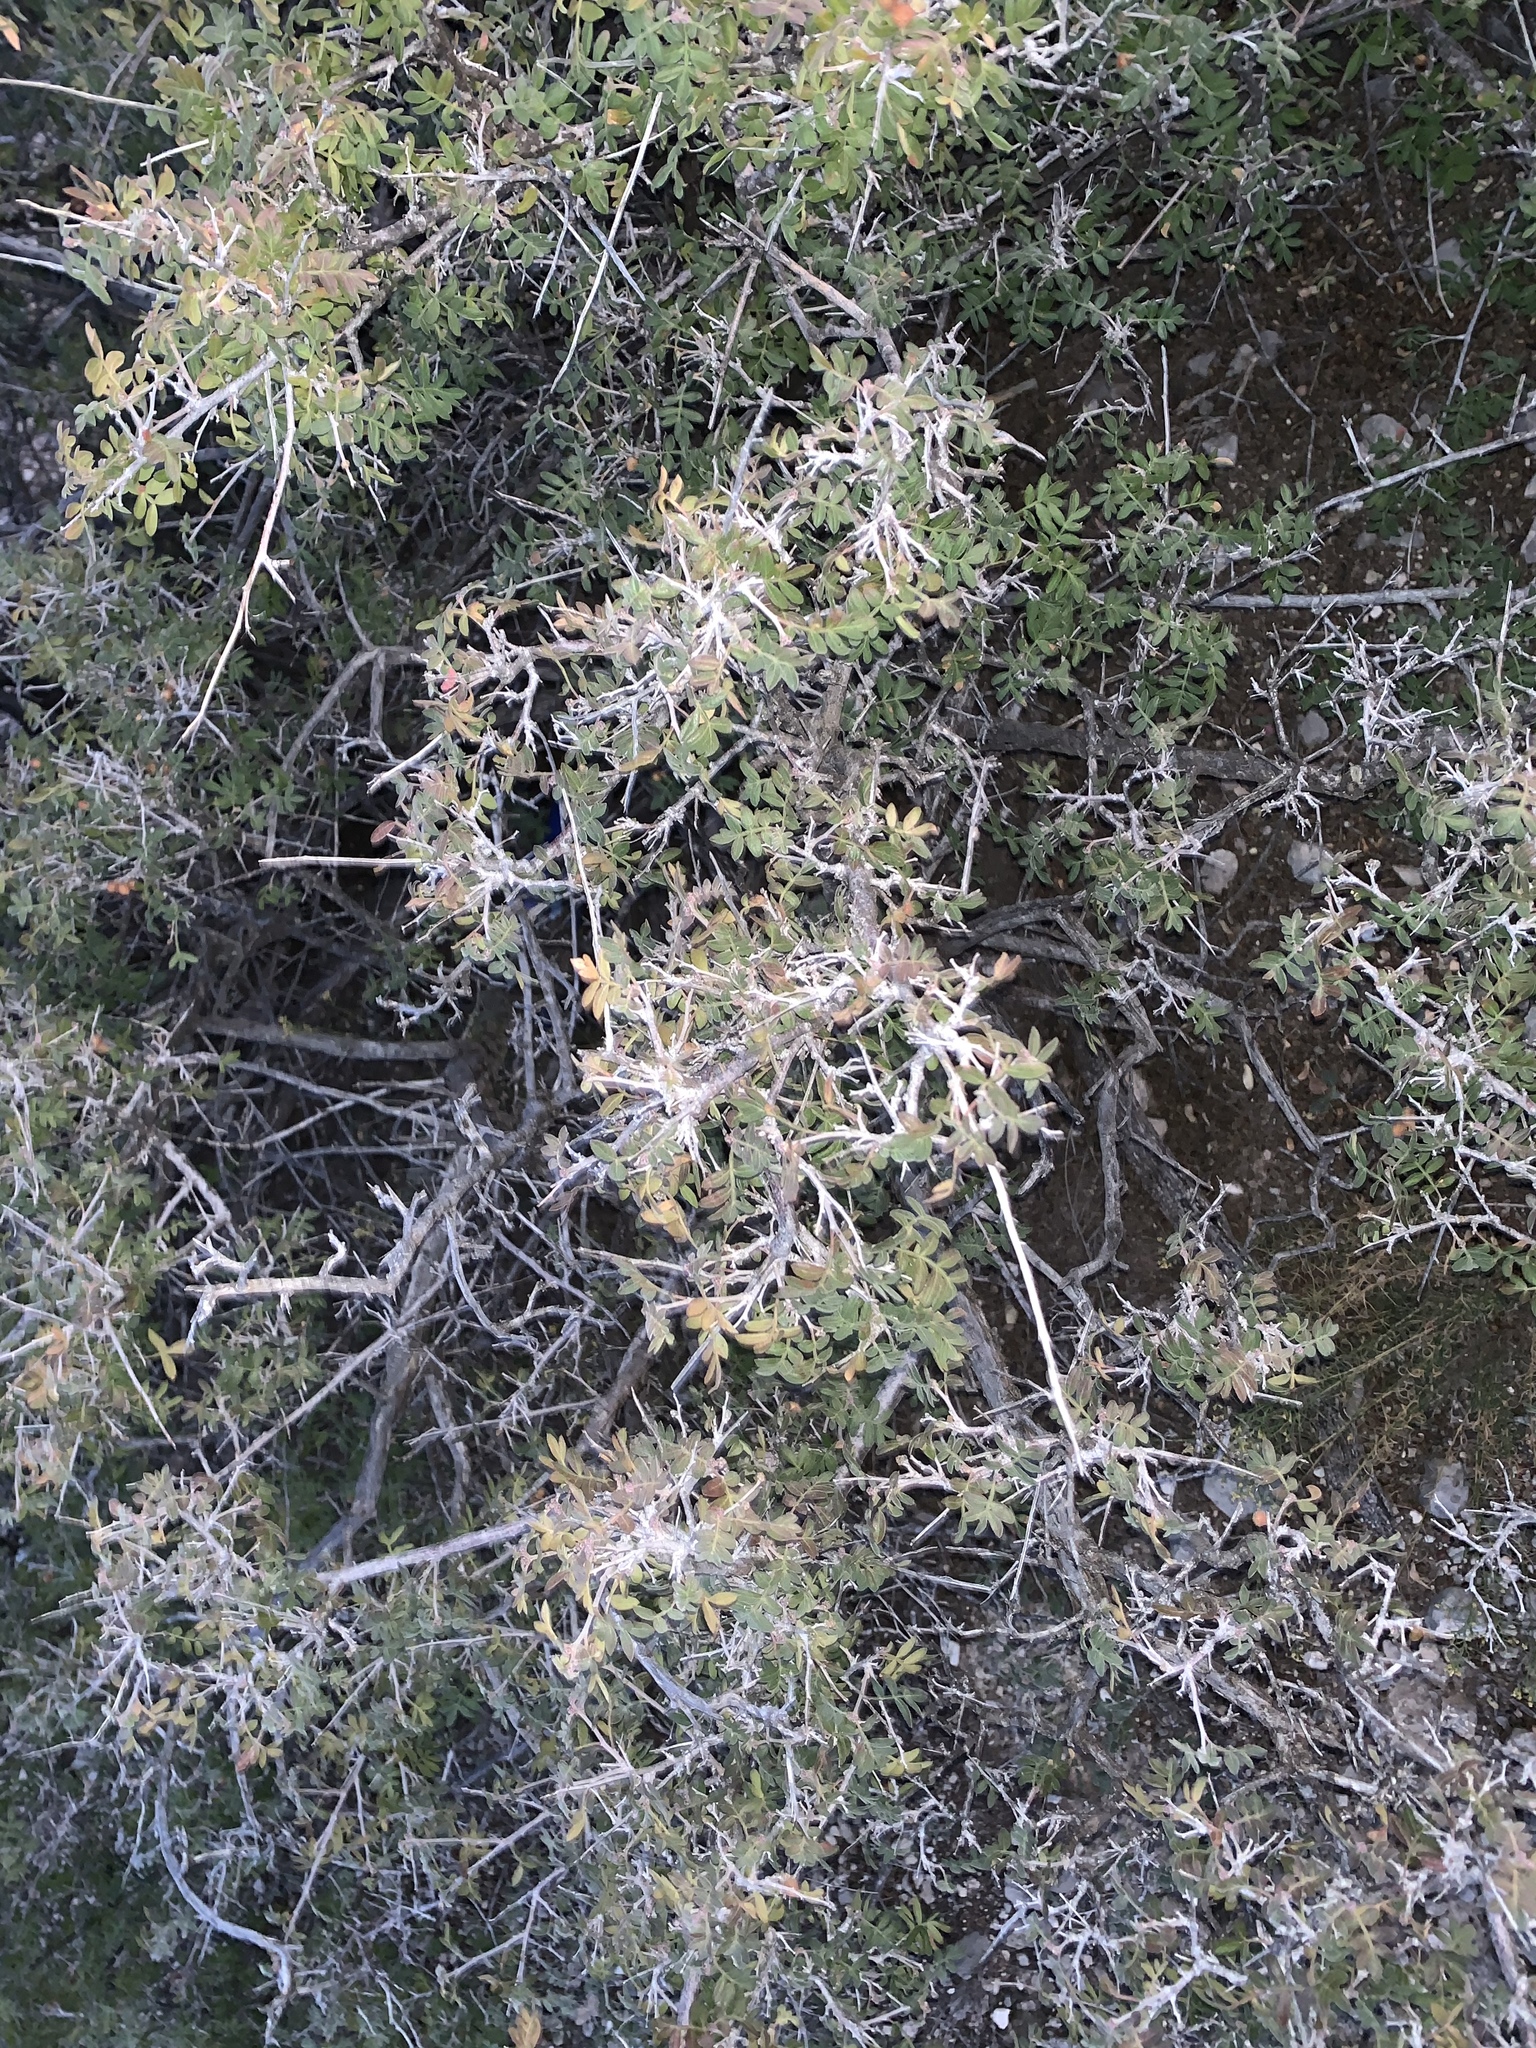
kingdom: Plantae
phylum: Tracheophyta
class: Magnoliopsida
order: Sapindales
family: Anacardiaceae
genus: Rhus
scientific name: Rhus microphylla
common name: Desert sumac
